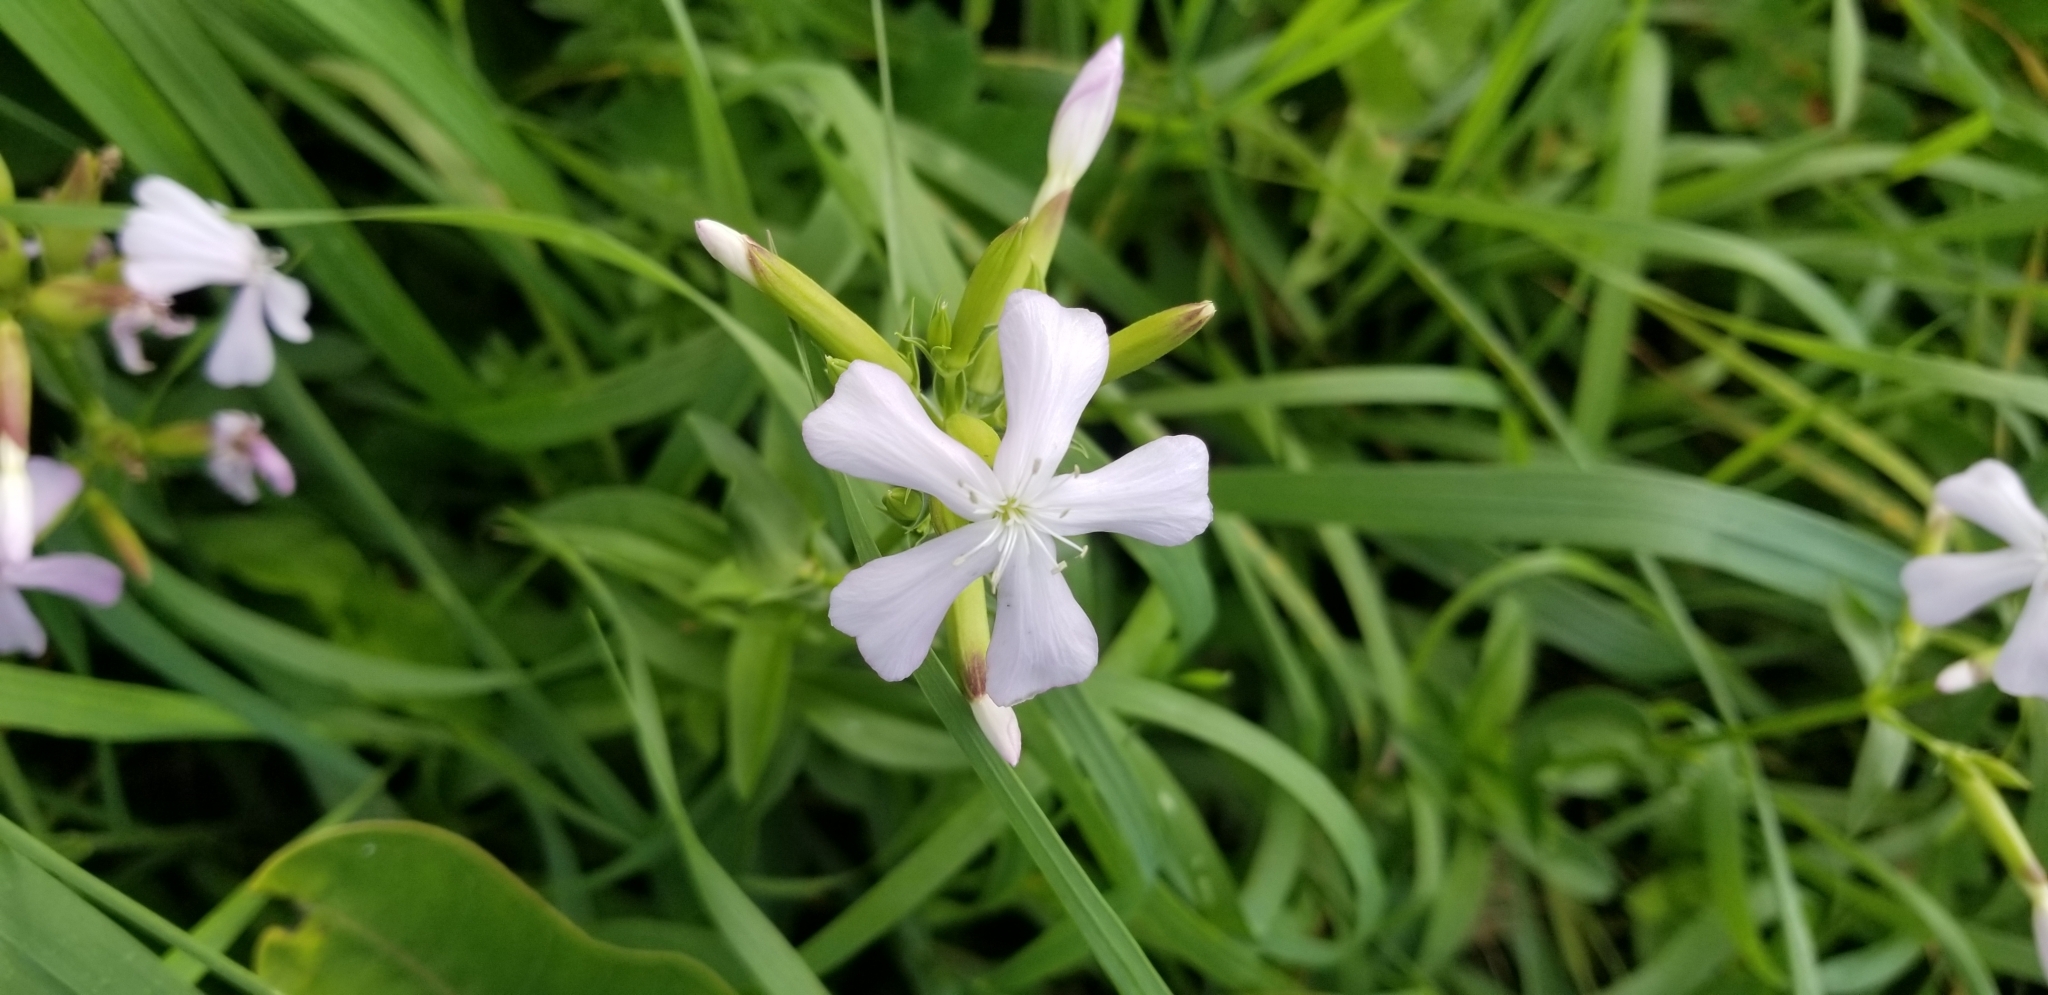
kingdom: Plantae
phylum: Tracheophyta
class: Magnoliopsida
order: Caryophyllales
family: Caryophyllaceae
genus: Saponaria
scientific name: Saponaria officinalis
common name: Soapwort
